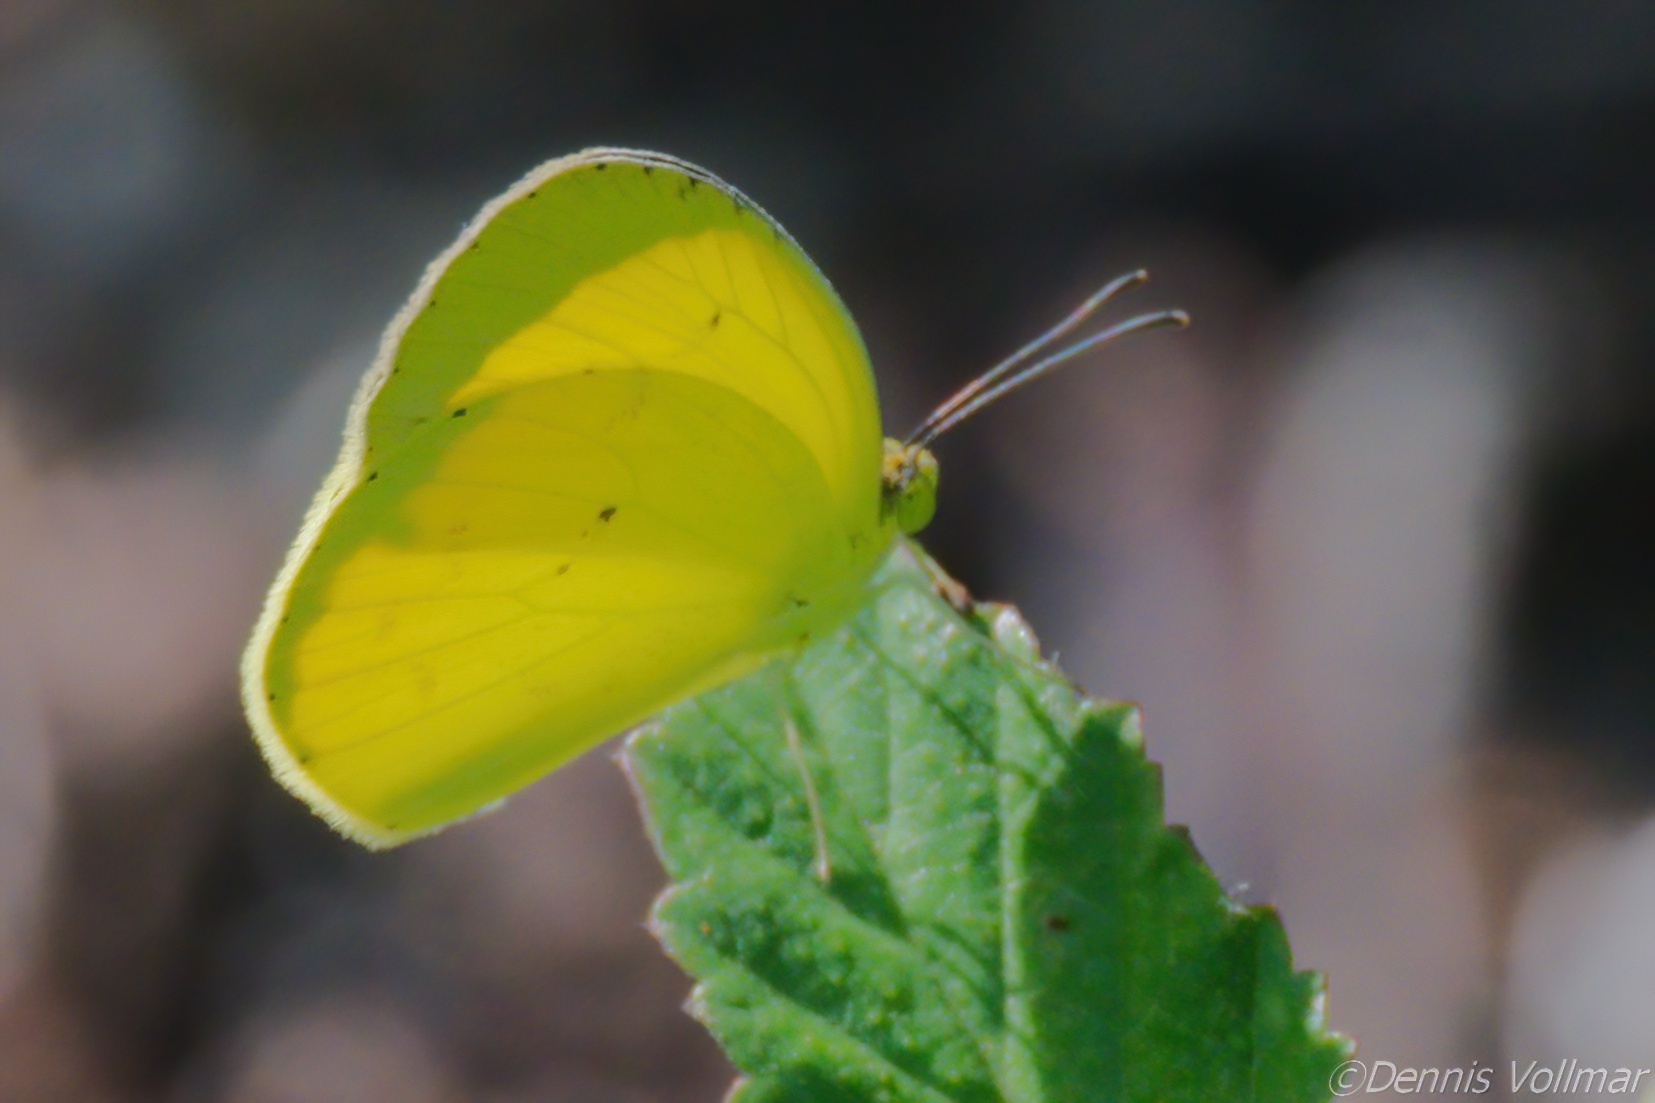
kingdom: Animalia
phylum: Arthropoda
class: Insecta
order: Lepidoptera
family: Pieridae
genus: Pyrisitia
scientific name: Pyrisitia nise
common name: Mimosa yellow
